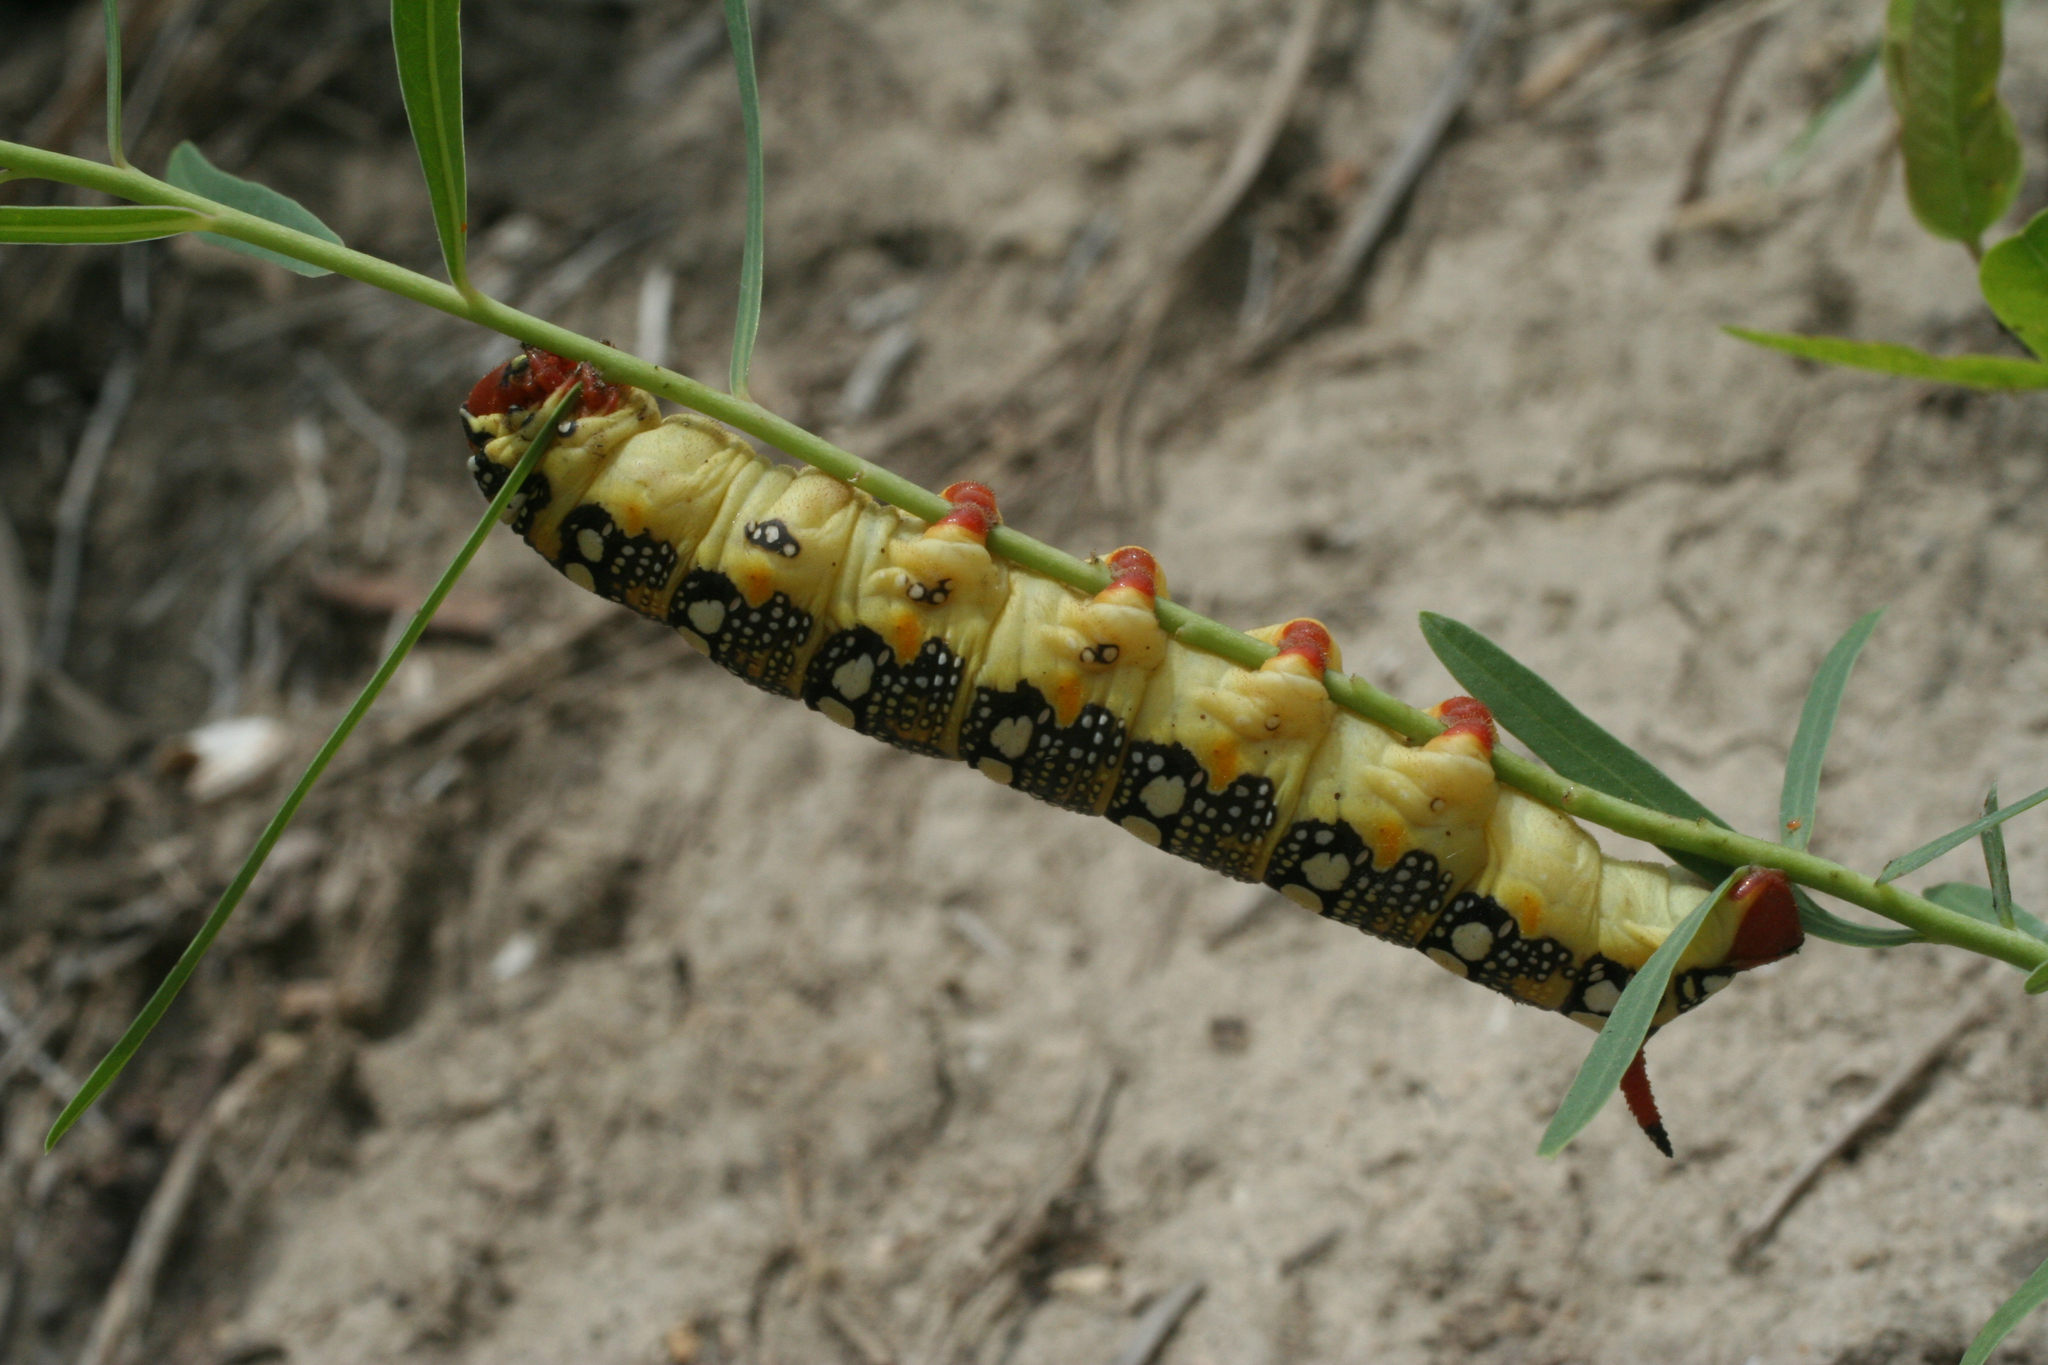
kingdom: Animalia
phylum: Arthropoda
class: Insecta
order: Lepidoptera
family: Sphingidae
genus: Hyles
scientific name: Hyles euphorbiae
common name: Spurge hawk-moth
